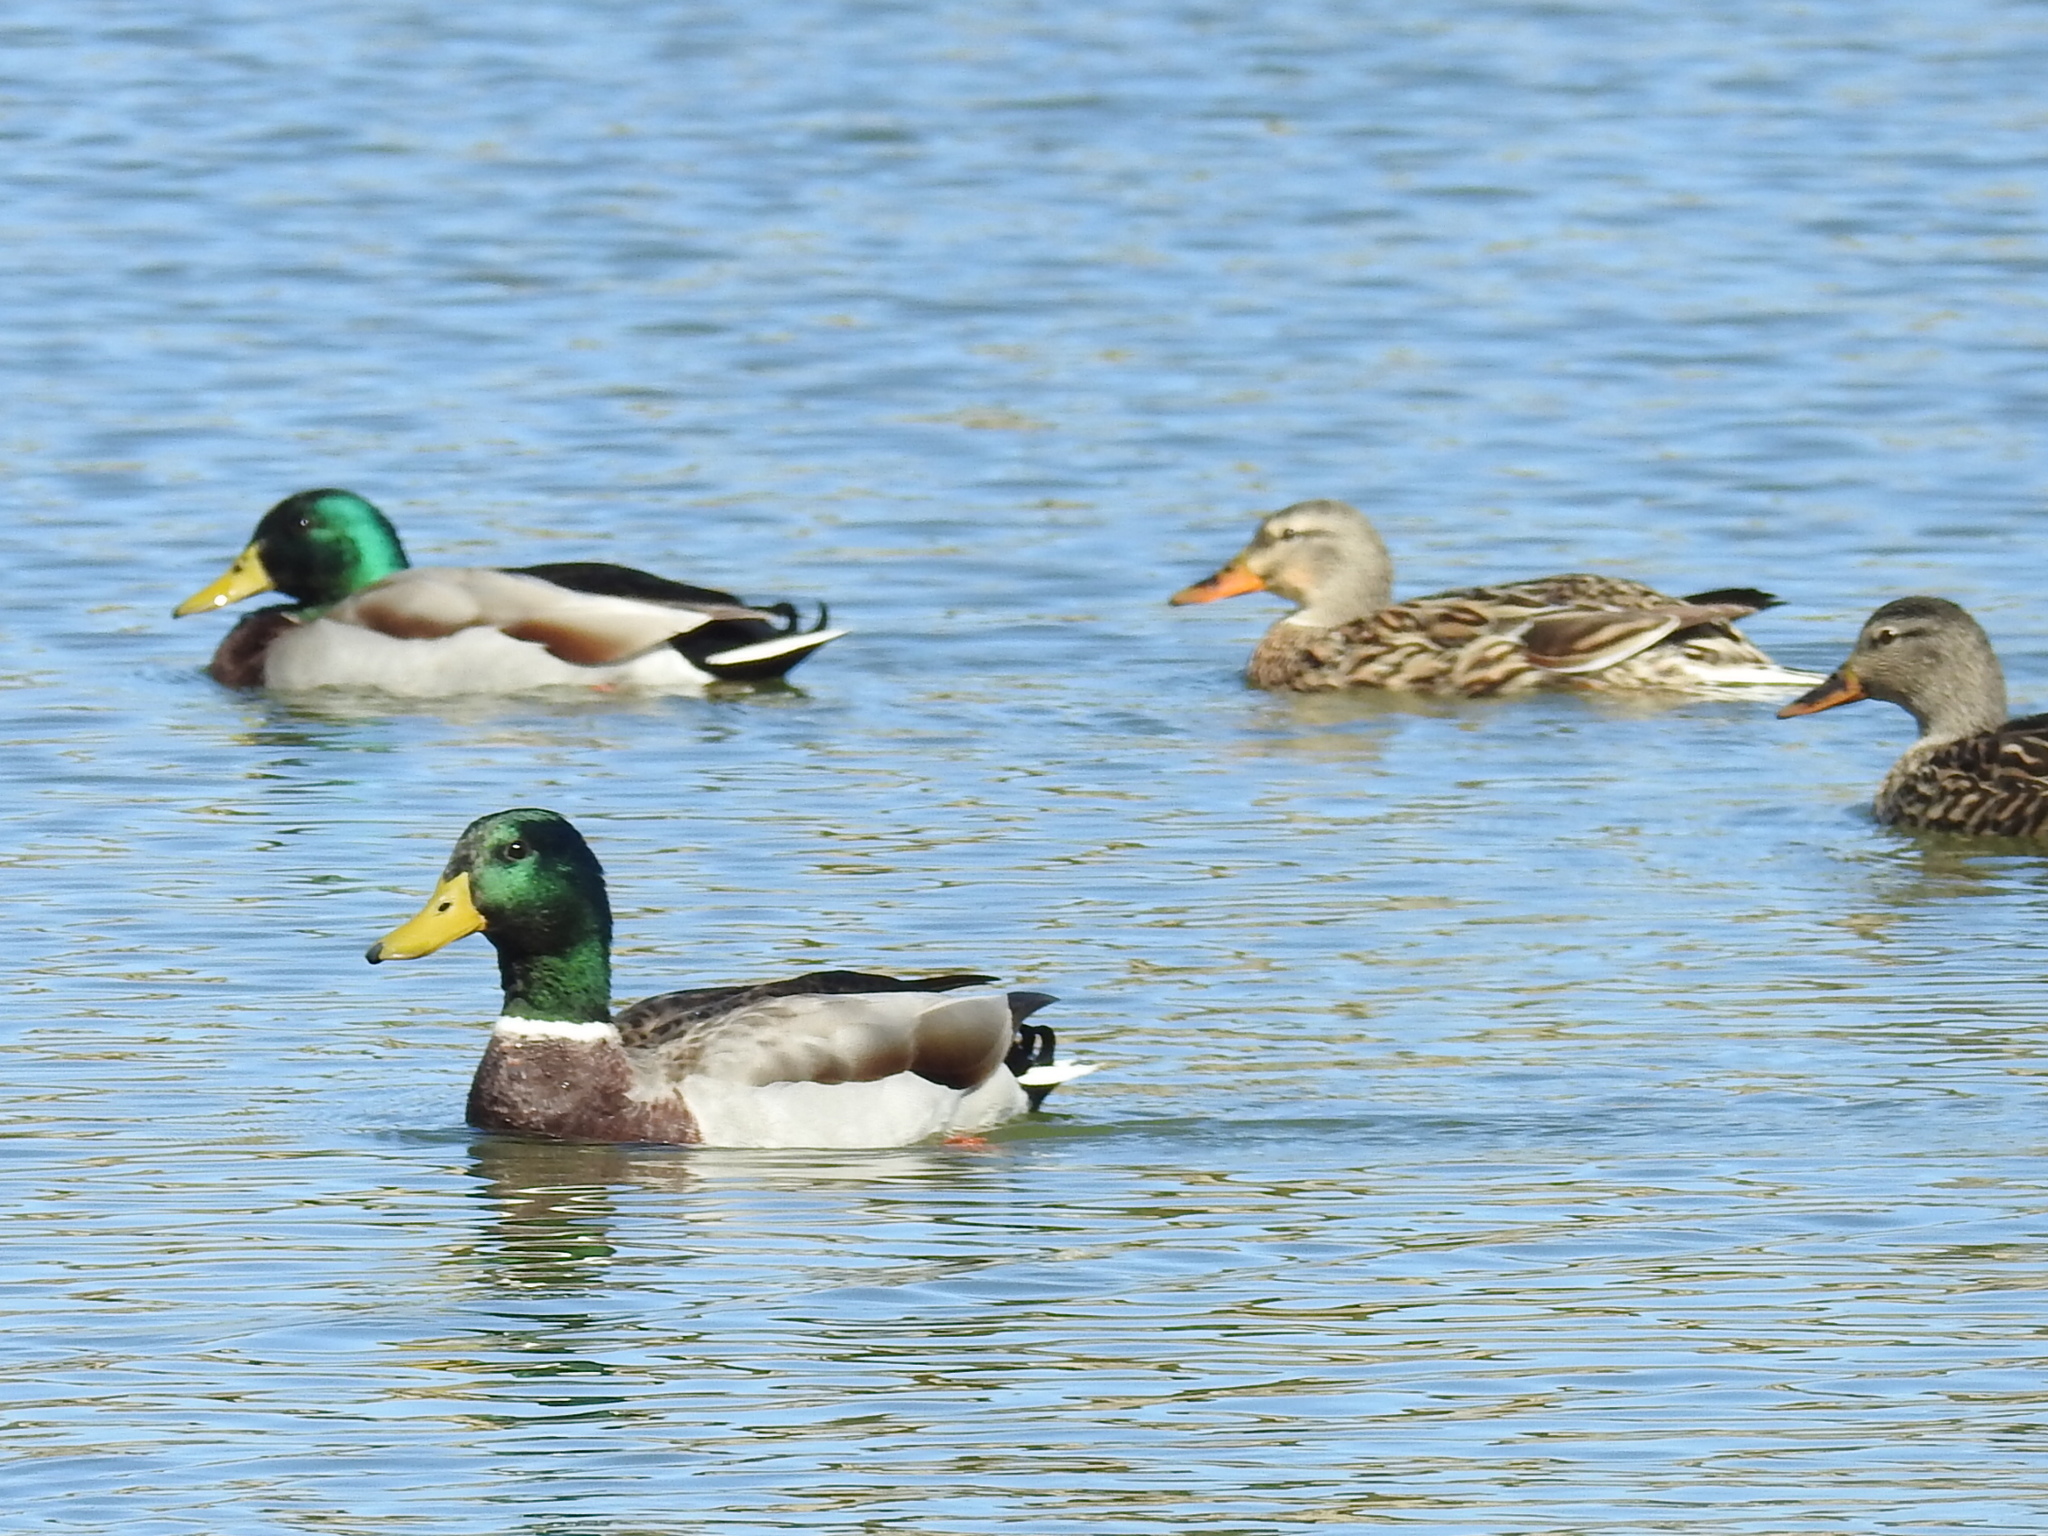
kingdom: Animalia
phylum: Chordata
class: Aves
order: Anseriformes
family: Anatidae
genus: Anas
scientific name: Anas platyrhynchos
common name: Mallard
